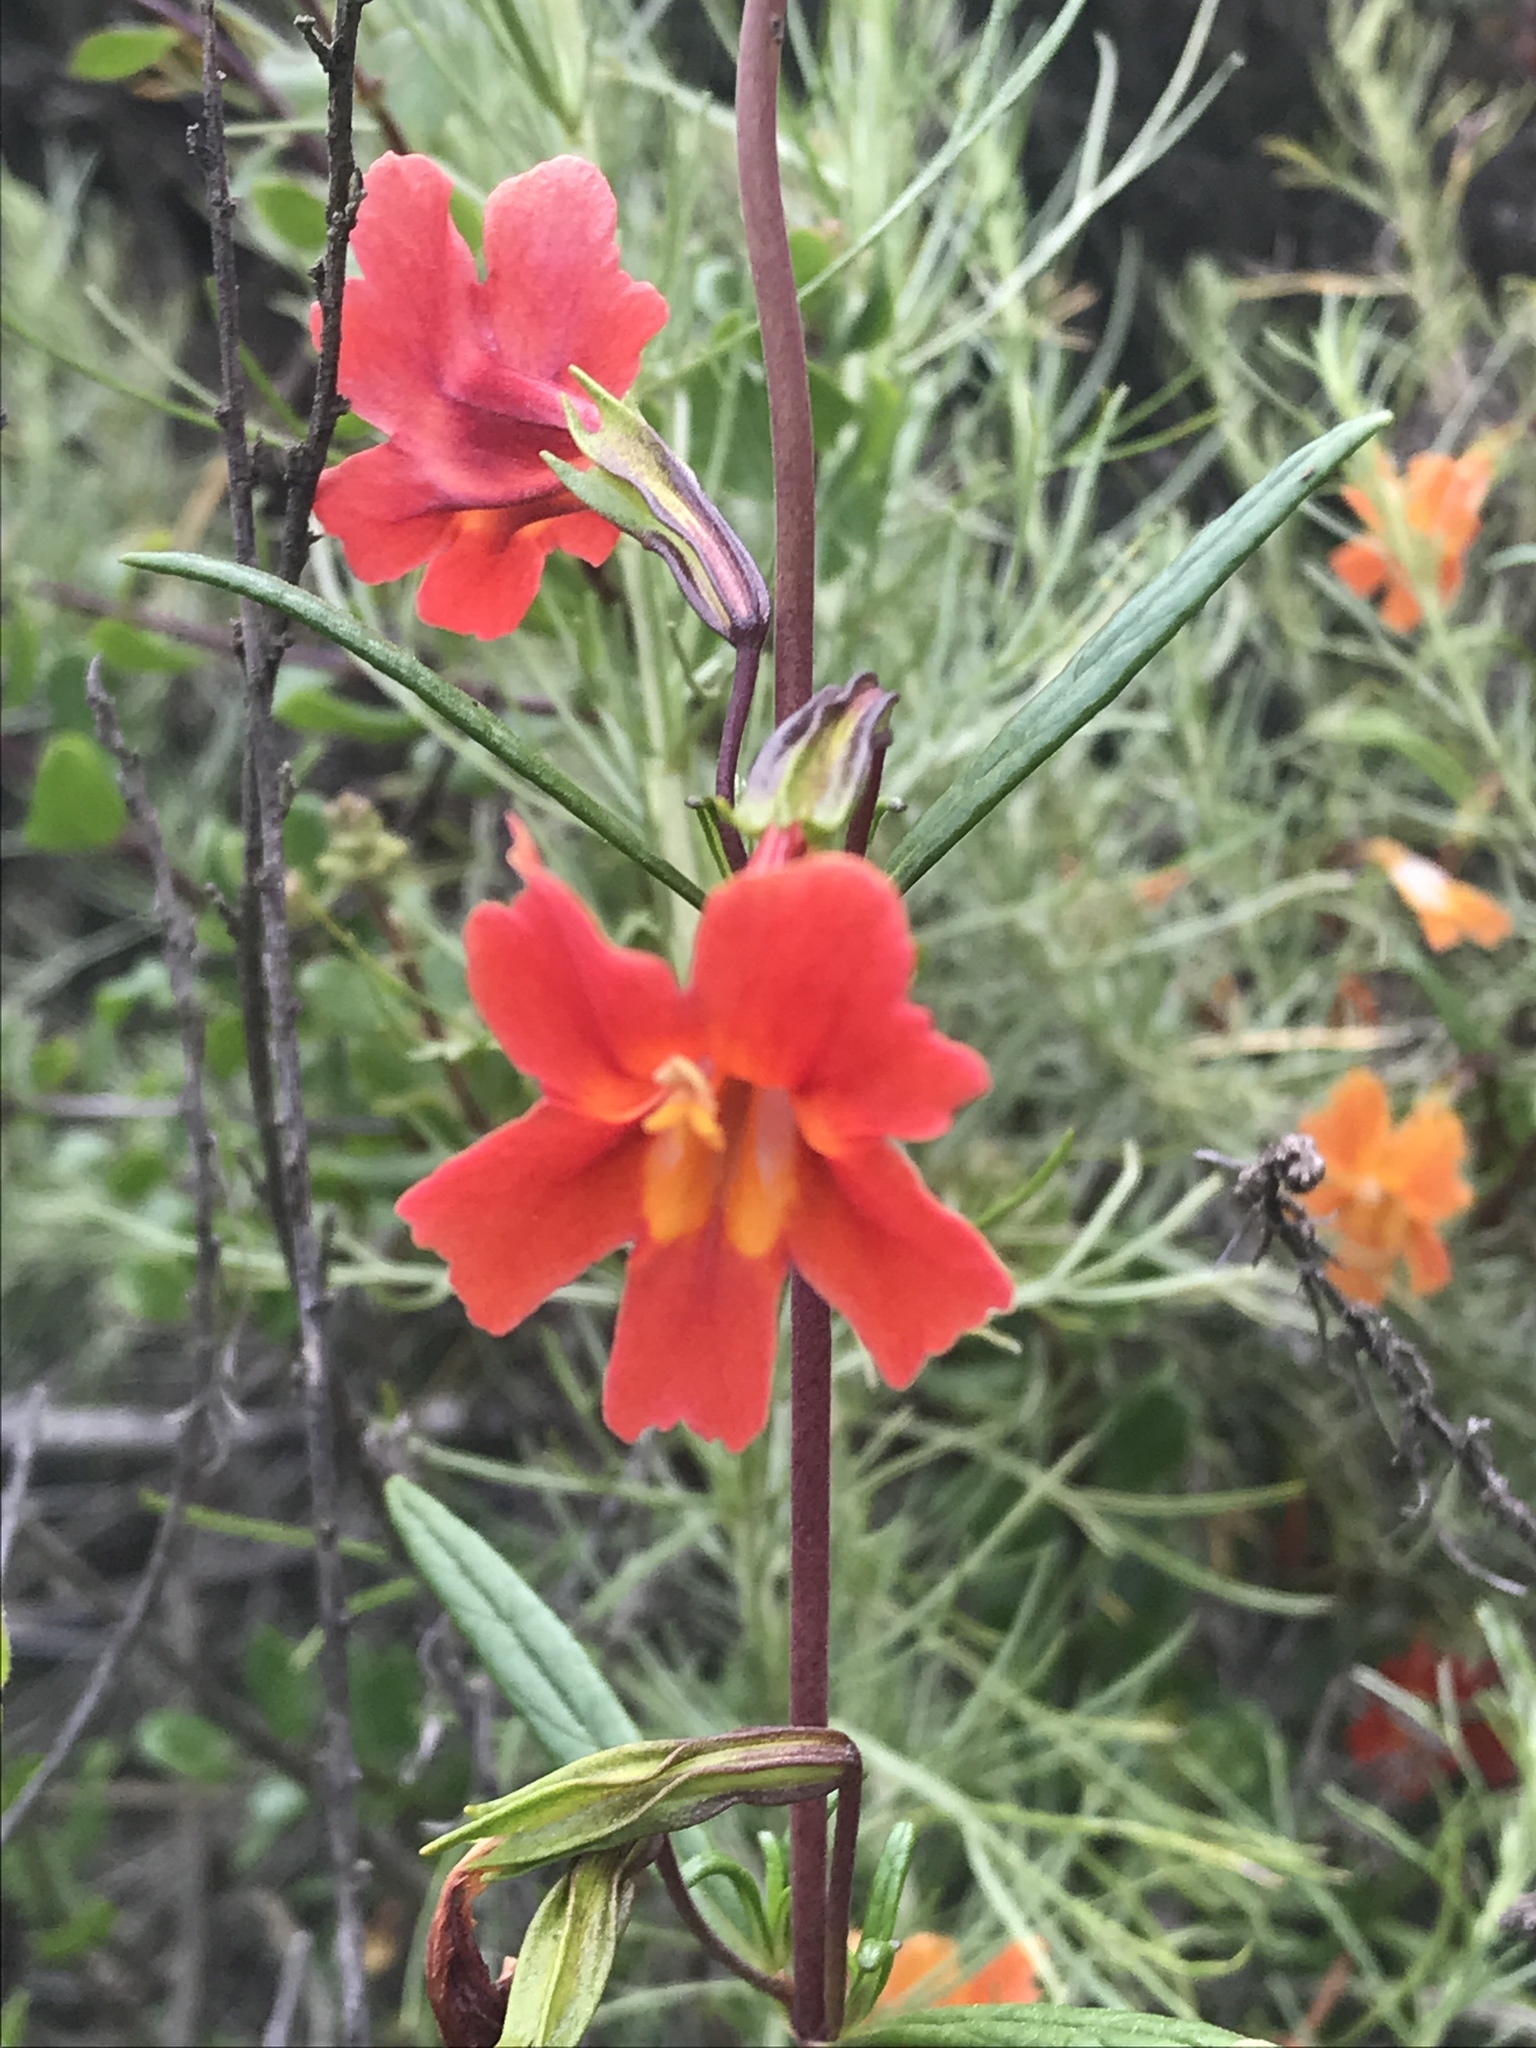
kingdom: Plantae
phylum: Tracheophyta
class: Magnoliopsida
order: Lamiales
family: Phrymaceae
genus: Diplacus
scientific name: Diplacus puniceus
